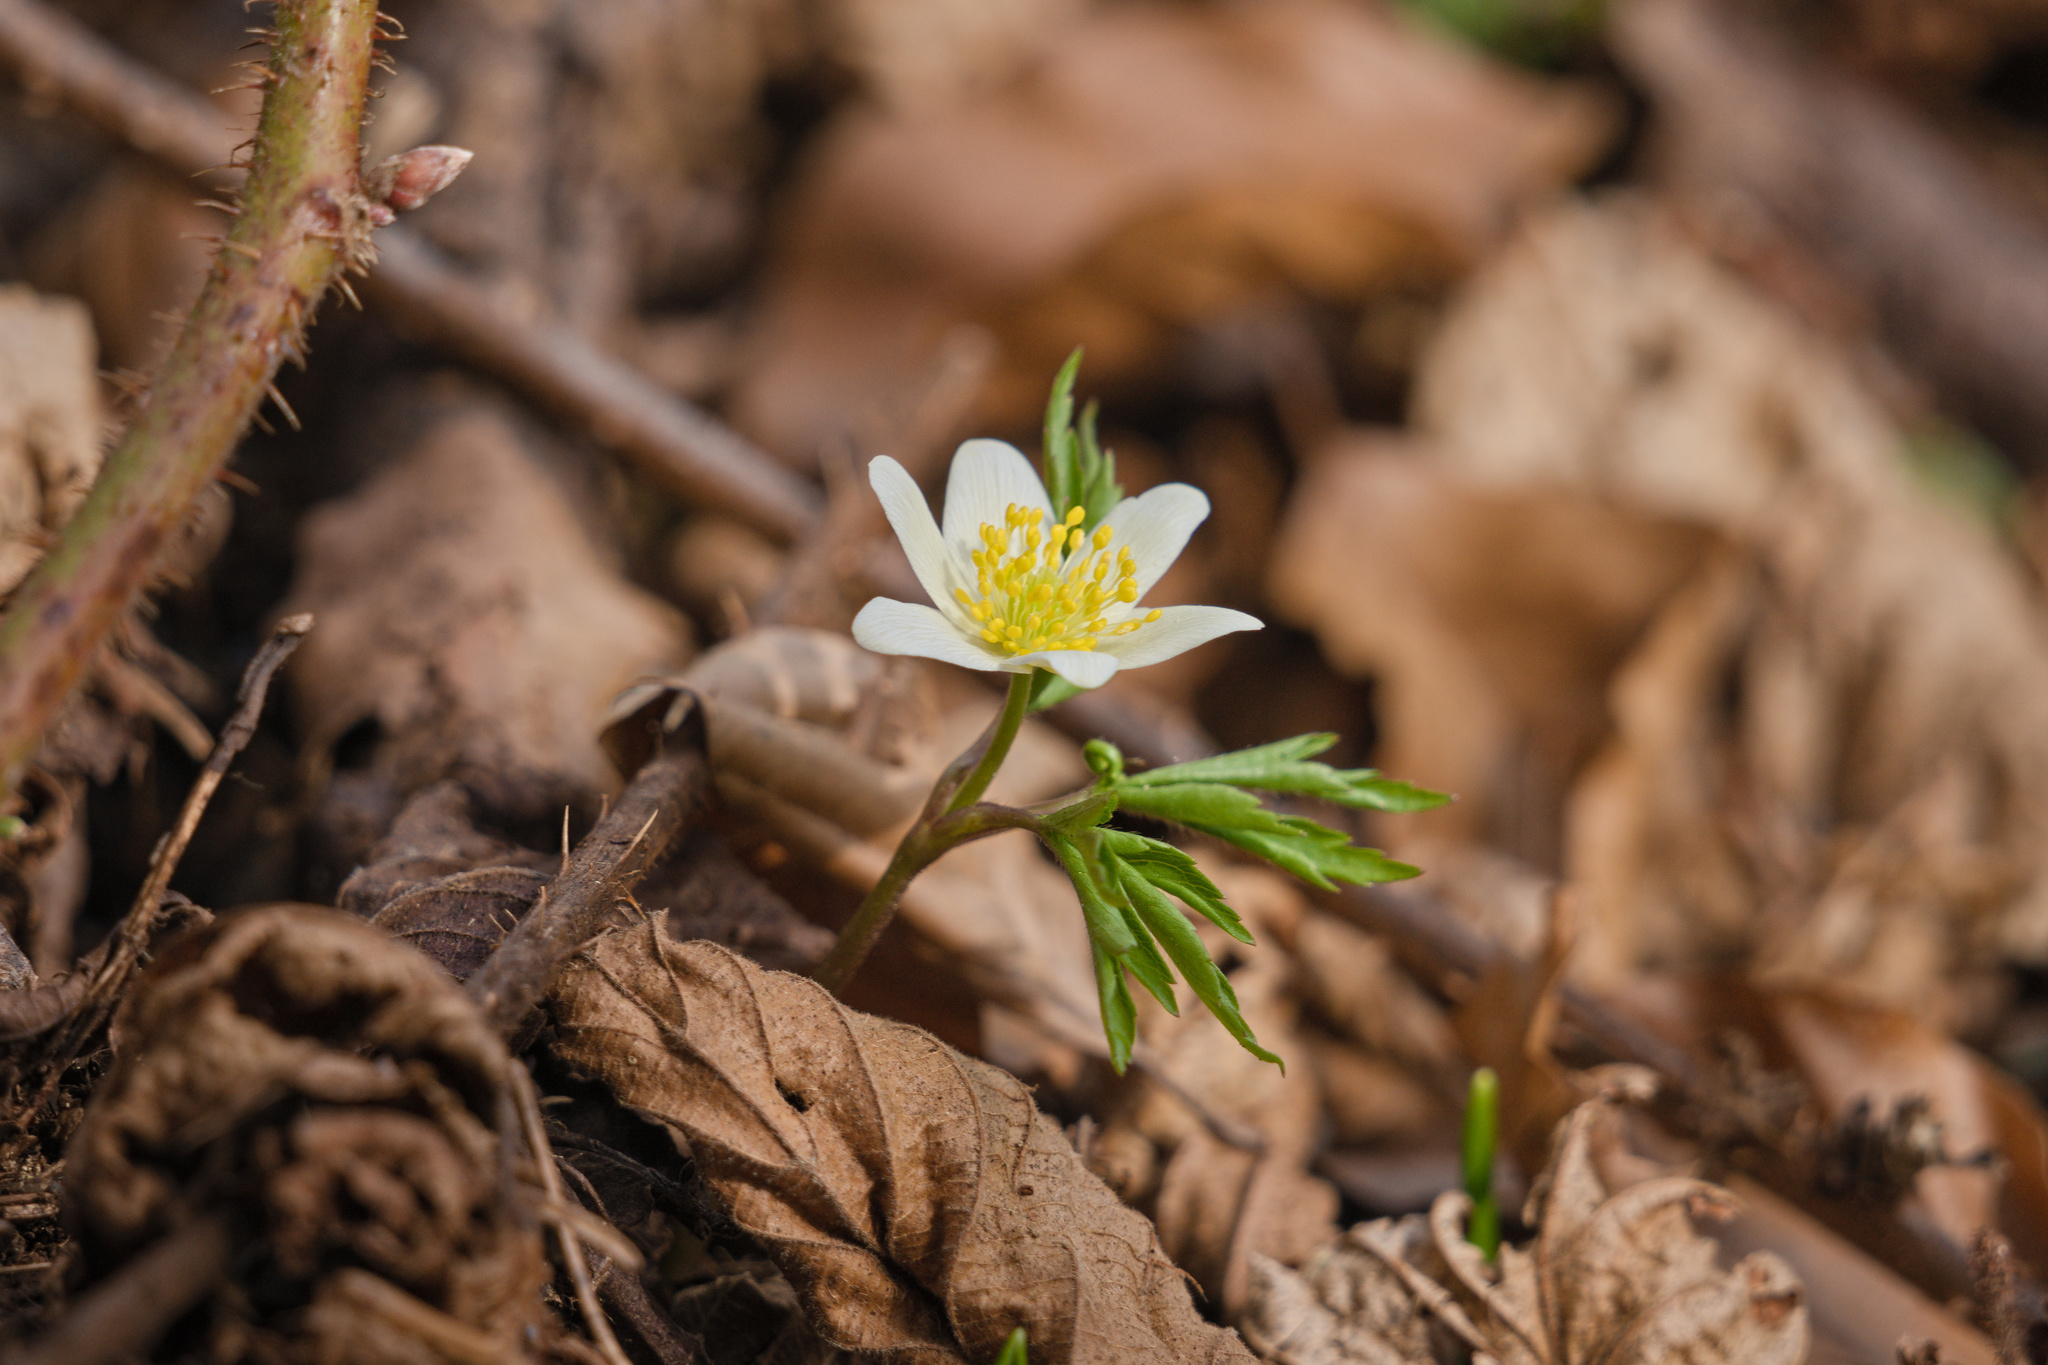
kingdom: Plantae
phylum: Tracheophyta
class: Magnoliopsida
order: Ranunculales
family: Ranunculaceae
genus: Anemone
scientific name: Anemone nemorosa
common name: Wood anemone
